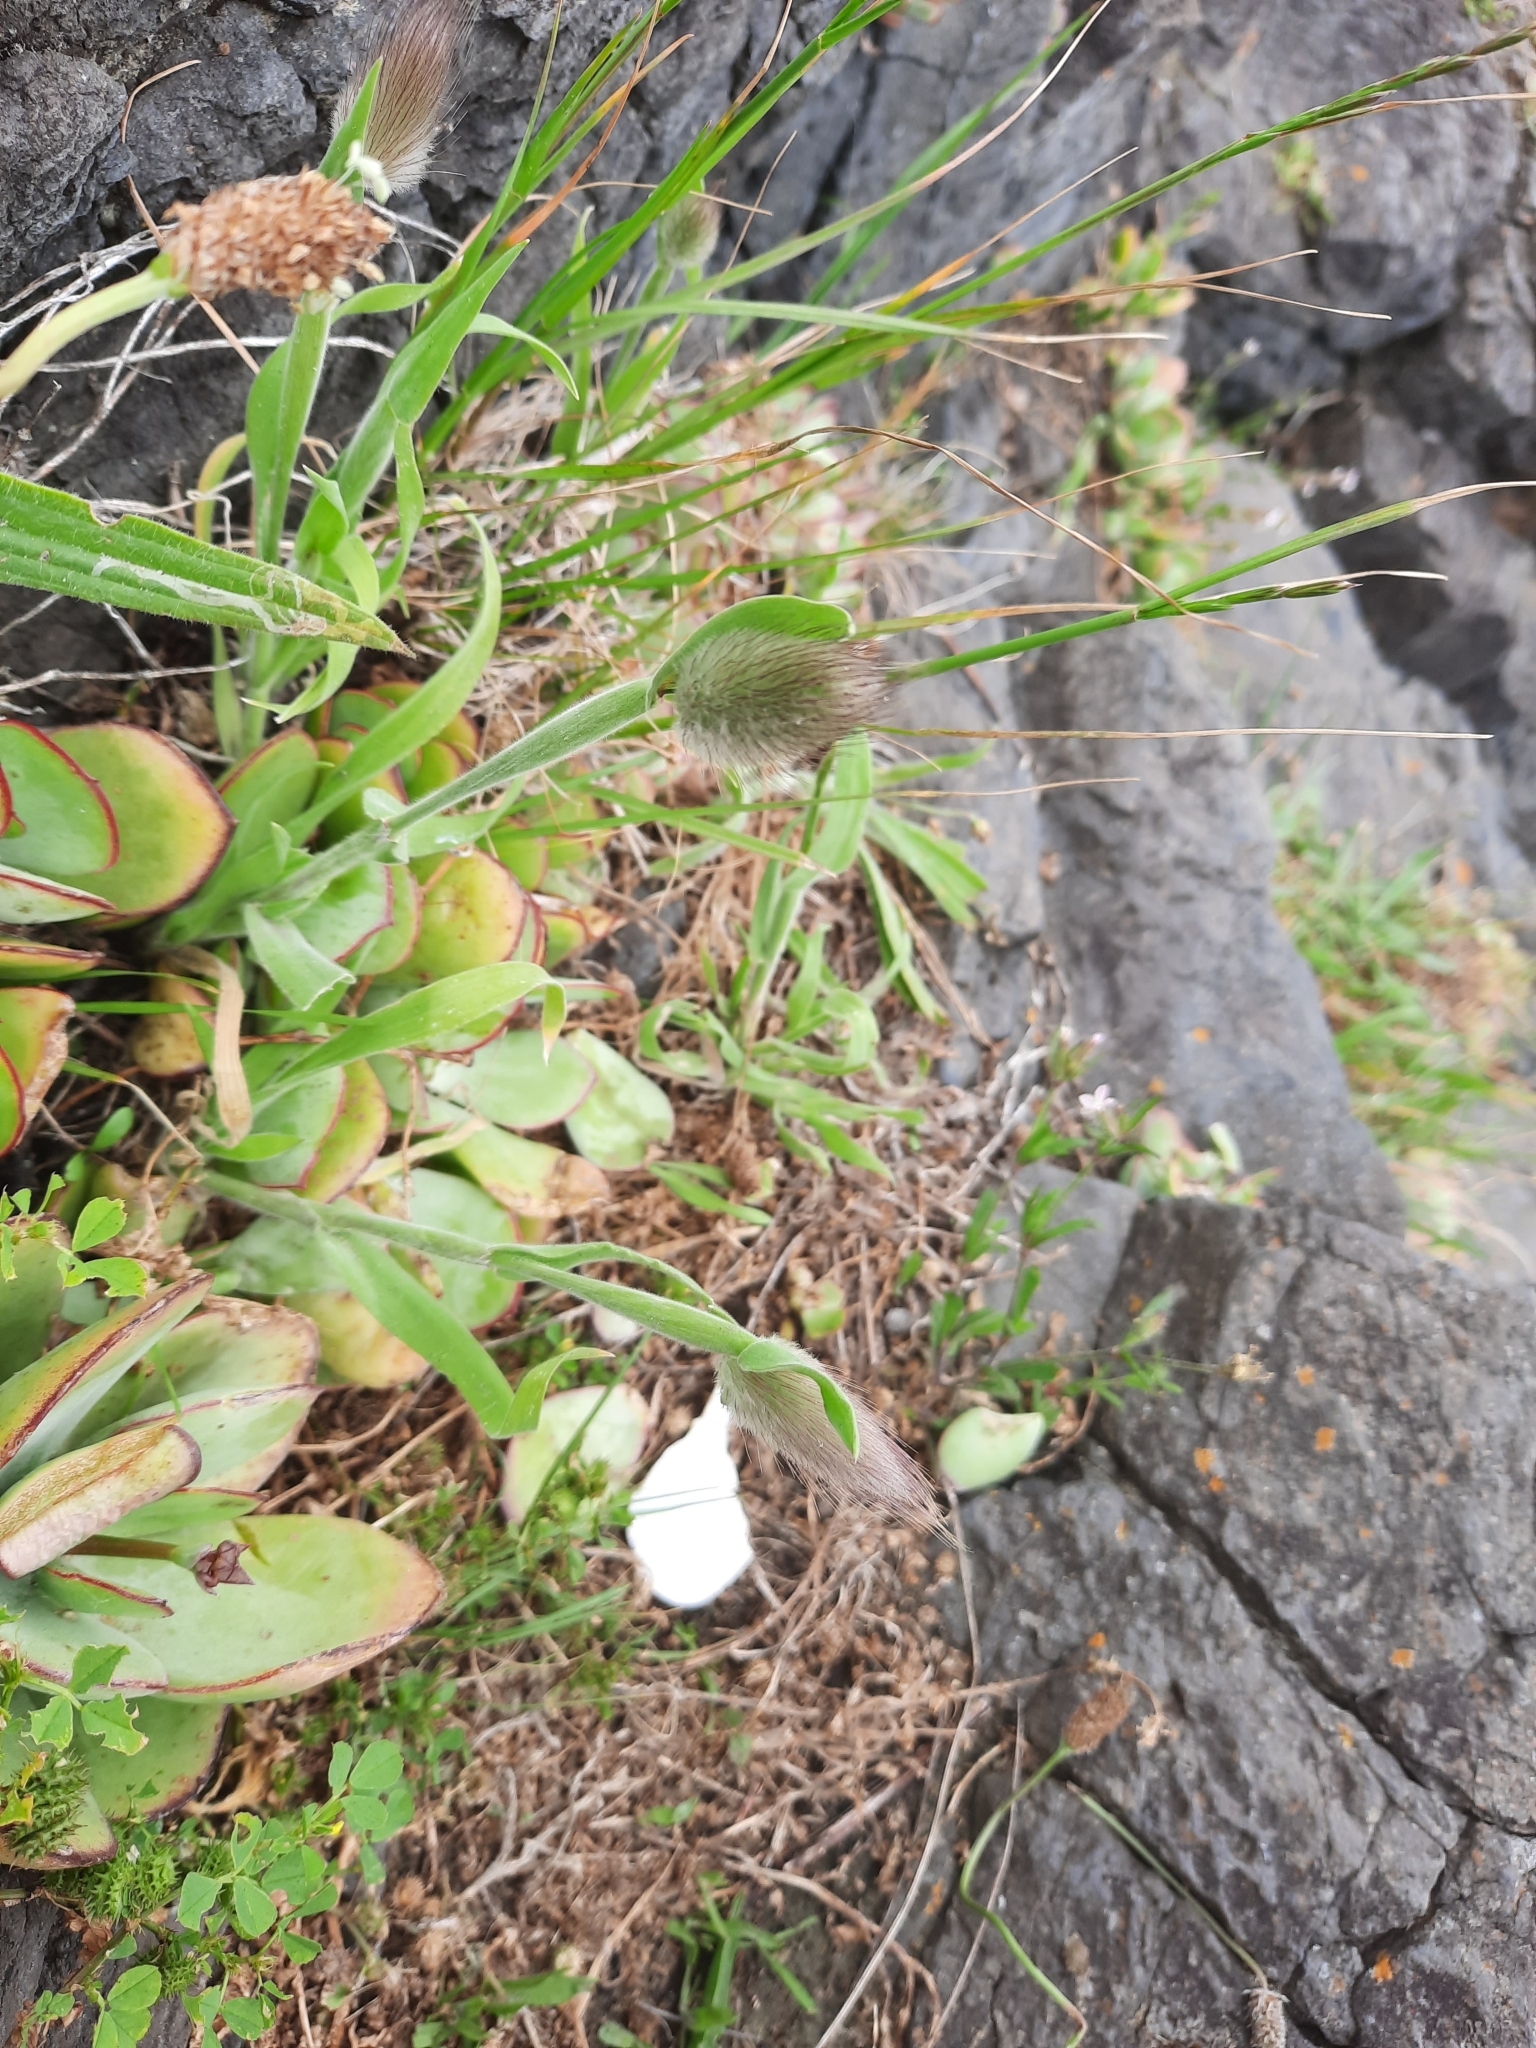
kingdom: Plantae
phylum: Tracheophyta
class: Liliopsida
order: Poales
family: Poaceae
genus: Lagurus
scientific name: Lagurus ovatus
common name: Hare's-tail
